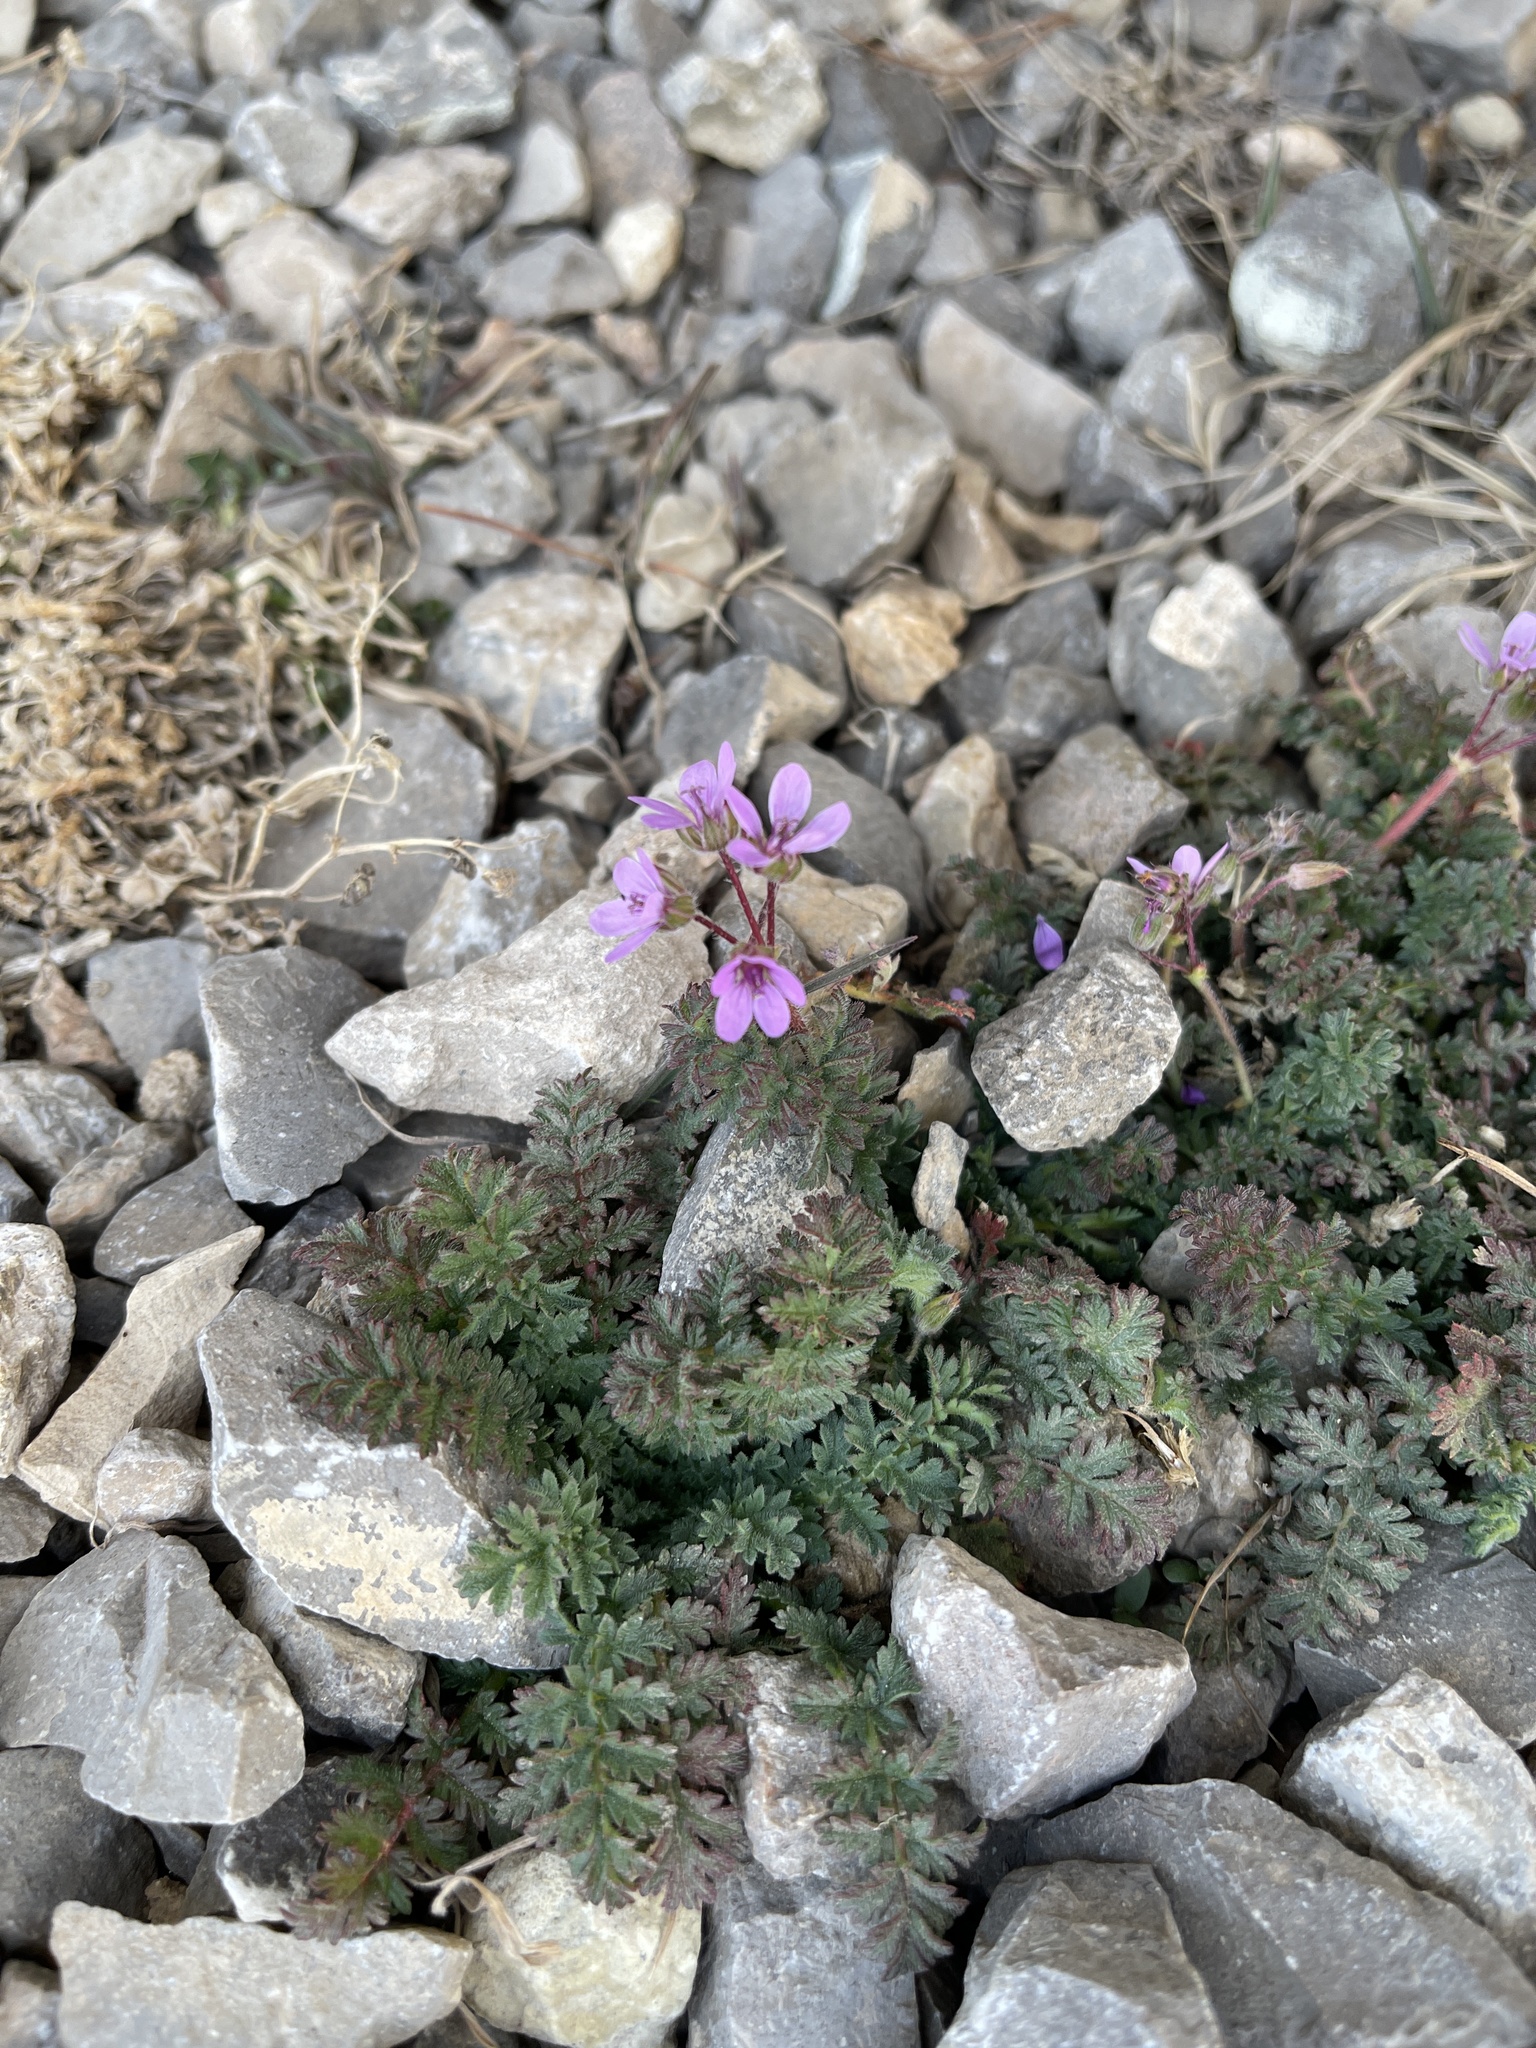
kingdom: Plantae
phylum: Tracheophyta
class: Magnoliopsida
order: Geraniales
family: Geraniaceae
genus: Erodium
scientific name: Erodium cicutarium
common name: Common stork's-bill
